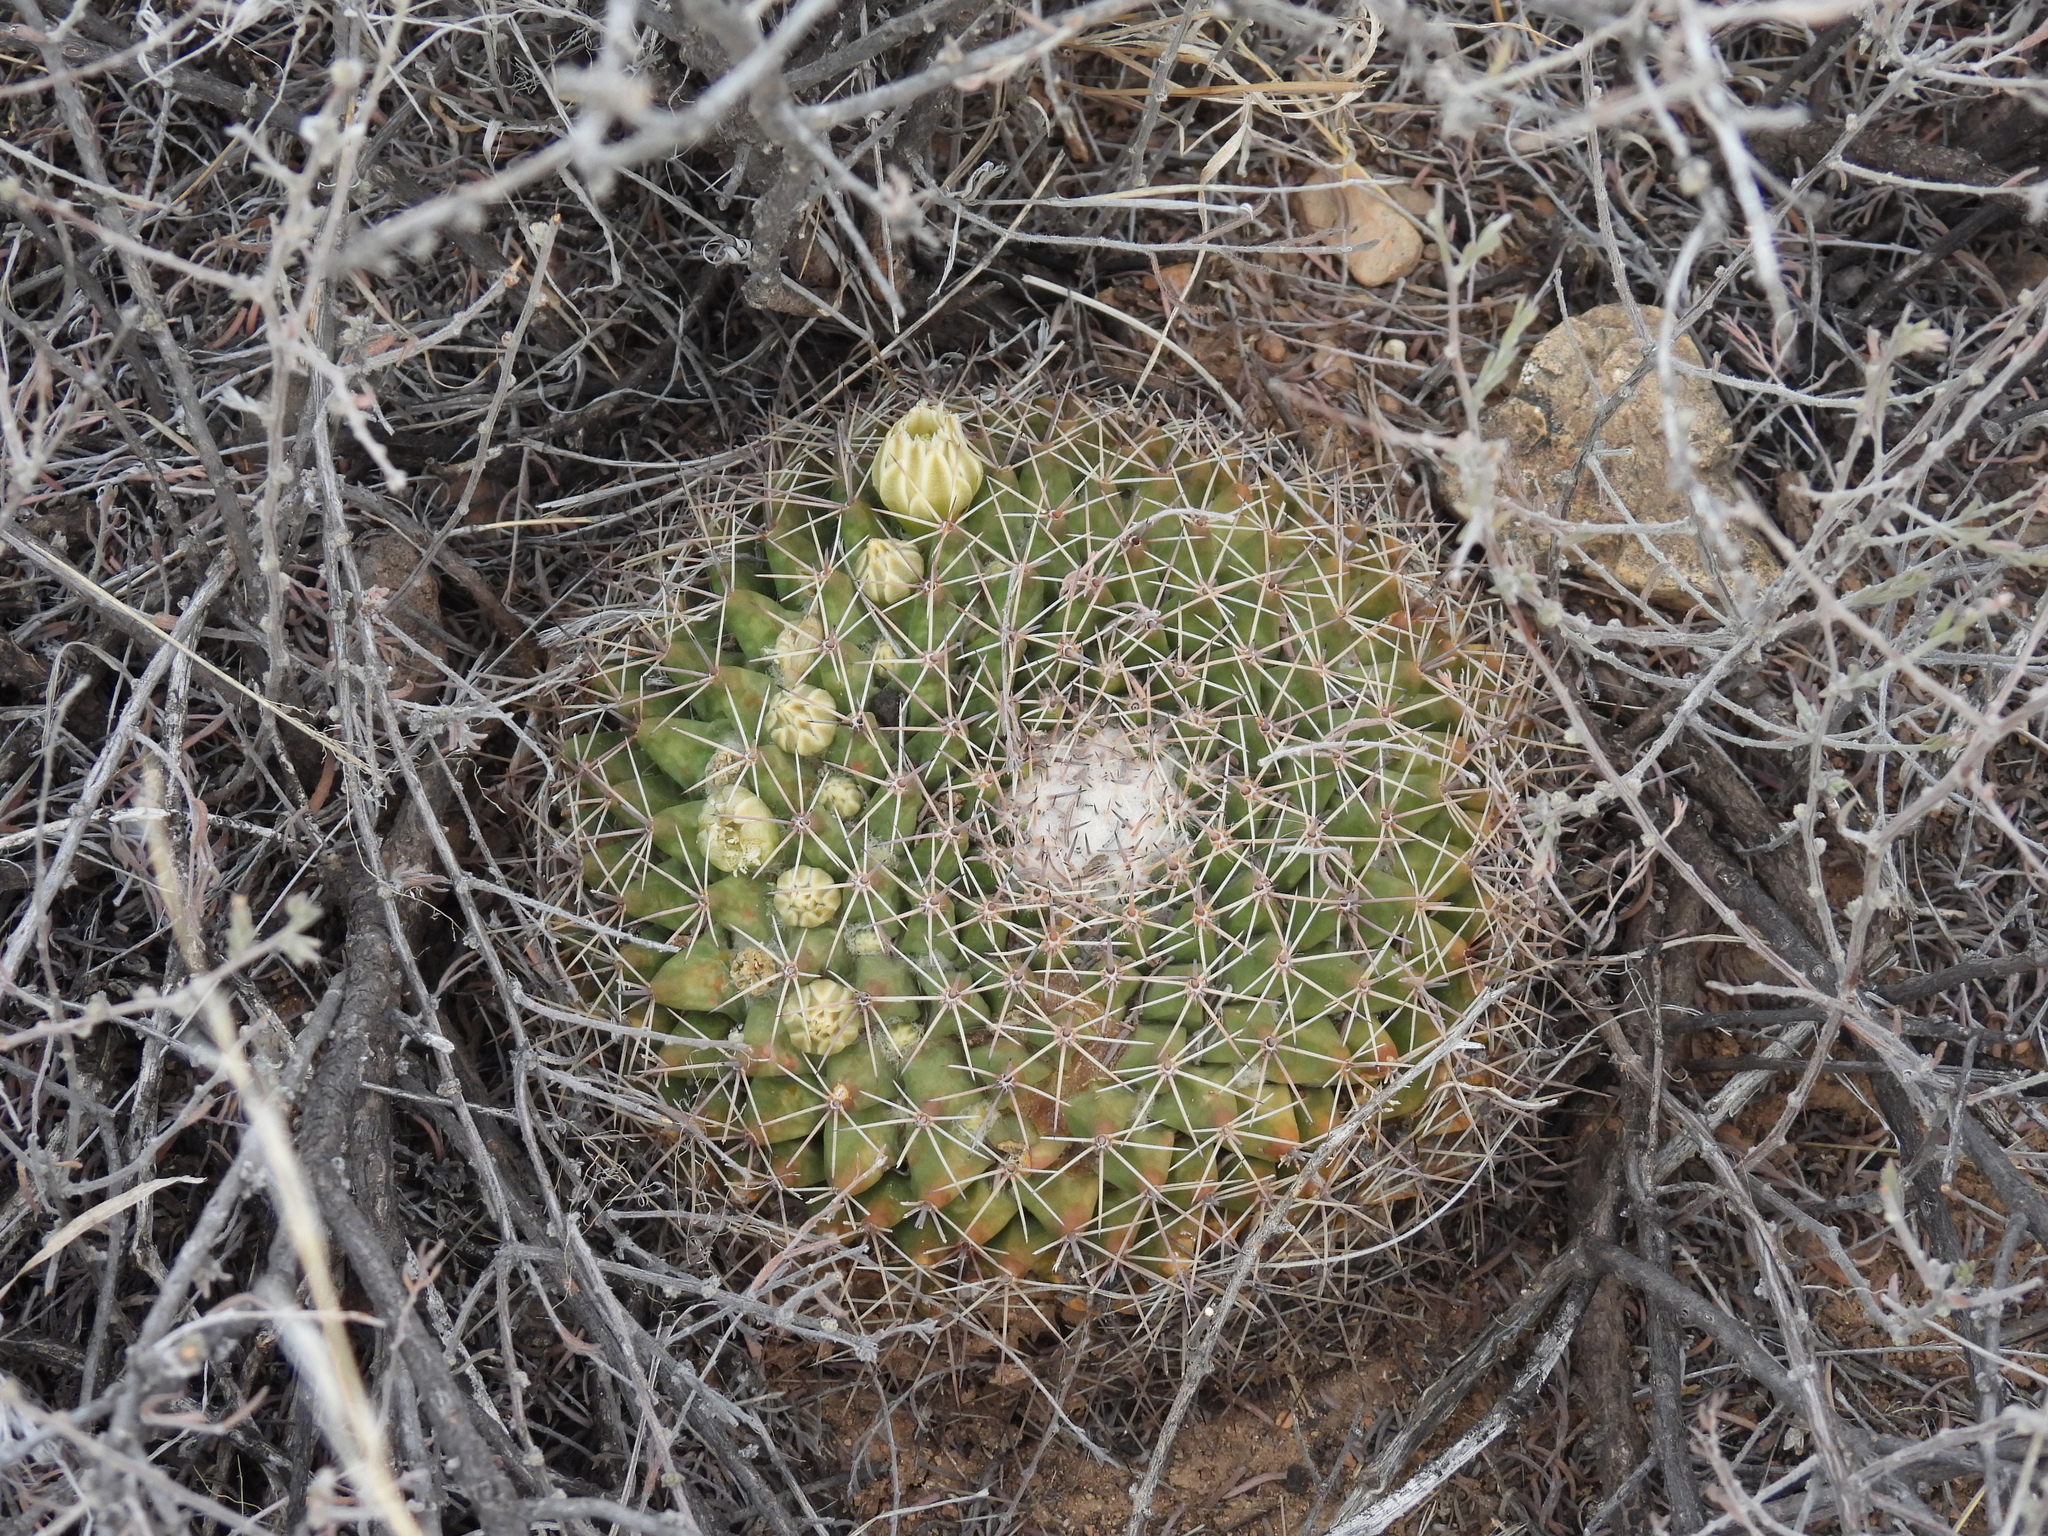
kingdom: Plantae
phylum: Tracheophyta
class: Magnoliopsida
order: Caryophyllales
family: Cactaceae
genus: Mammillaria
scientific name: Mammillaria heyderi
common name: Little nipple cactus
